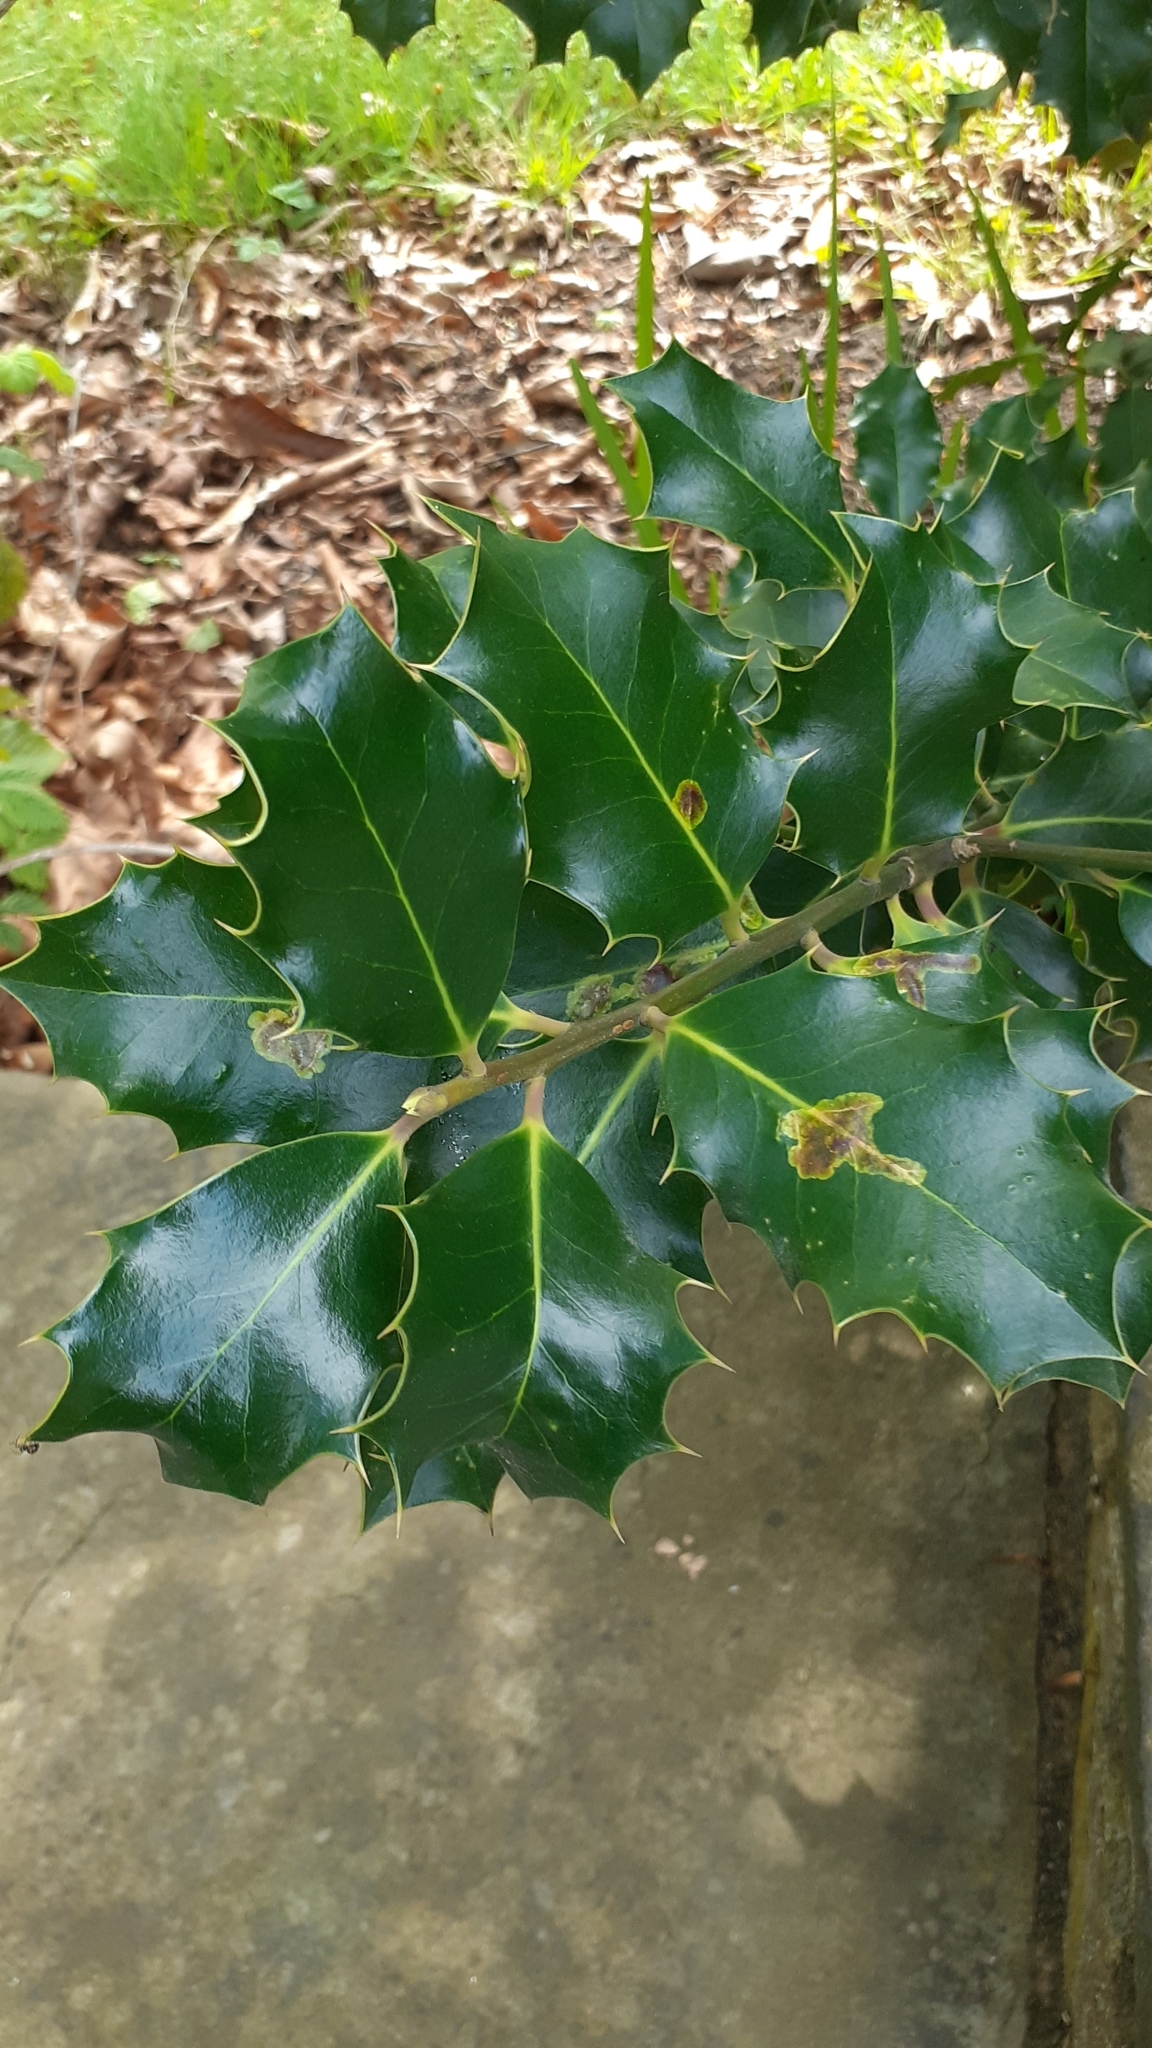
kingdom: Animalia
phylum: Arthropoda
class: Insecta
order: Diptera
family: Agromyzidae
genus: Phytomyza
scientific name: Phytomyza ilicis
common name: Holly leafminer
